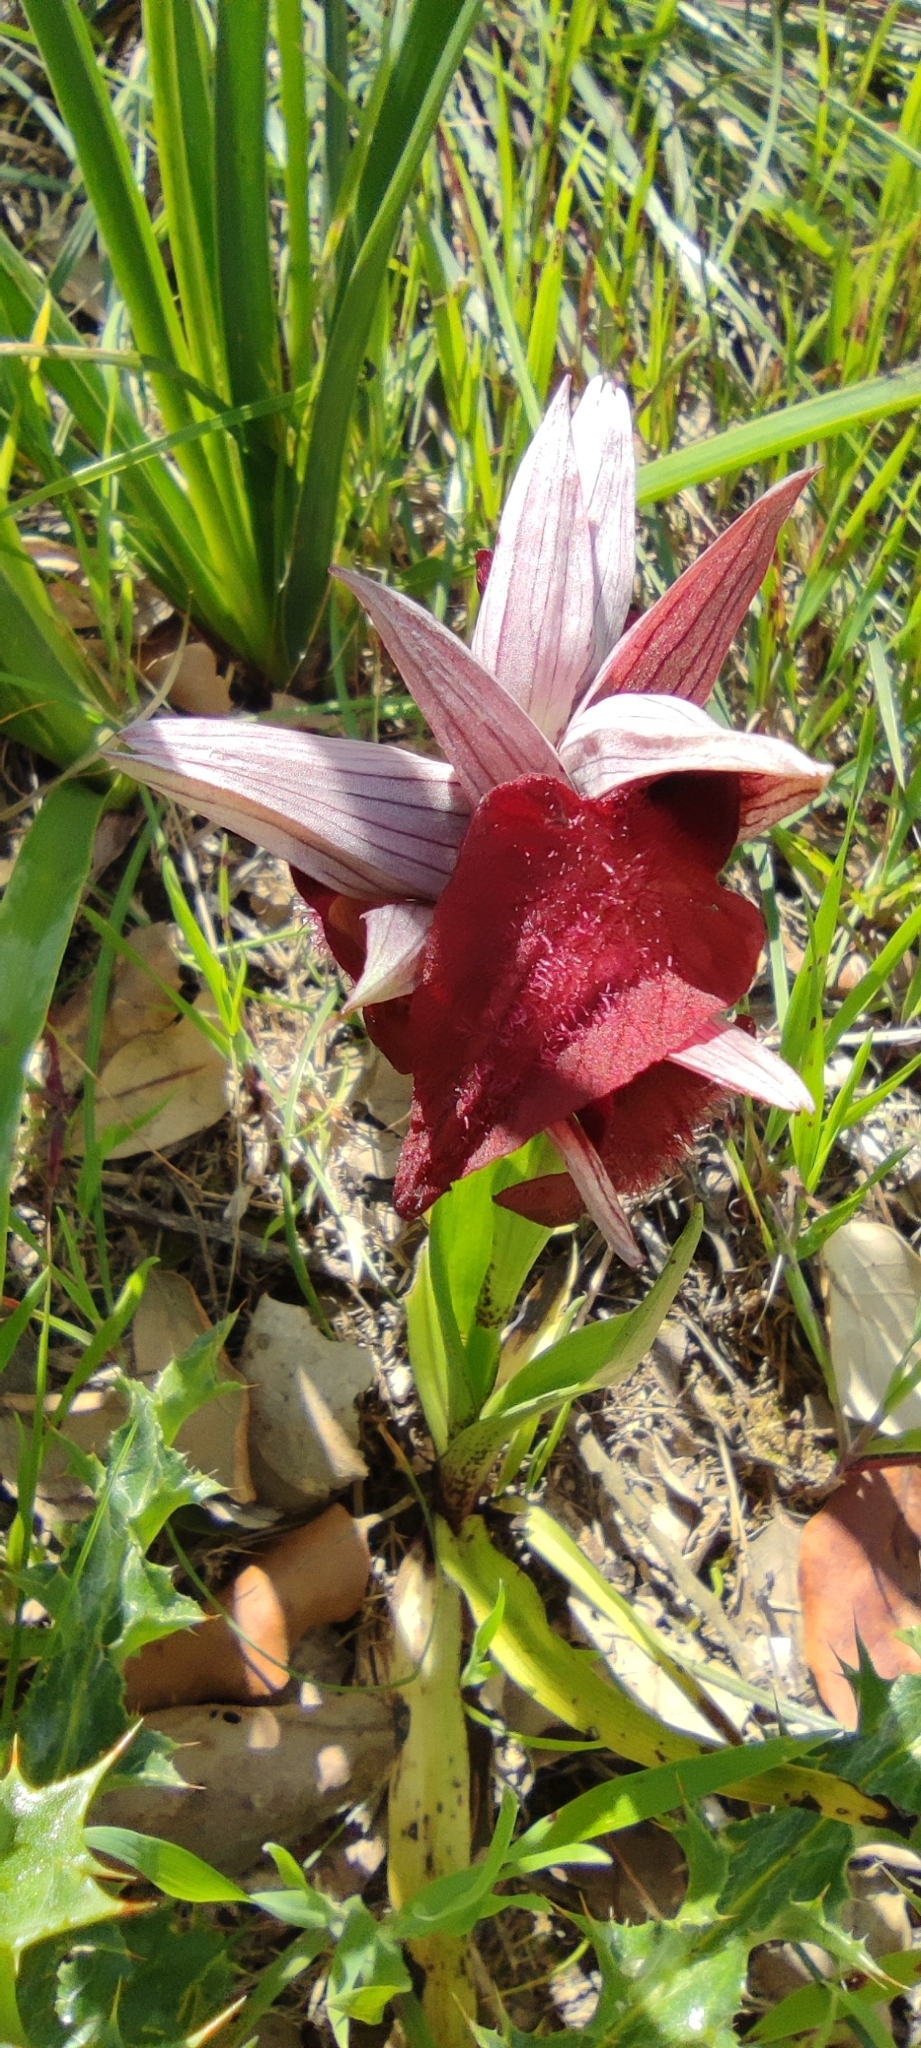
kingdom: Plantae
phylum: Tracheophyta
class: Liliopsida
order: Asparagales
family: Orchidaceae
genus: Serapias
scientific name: Serapias cordigera
